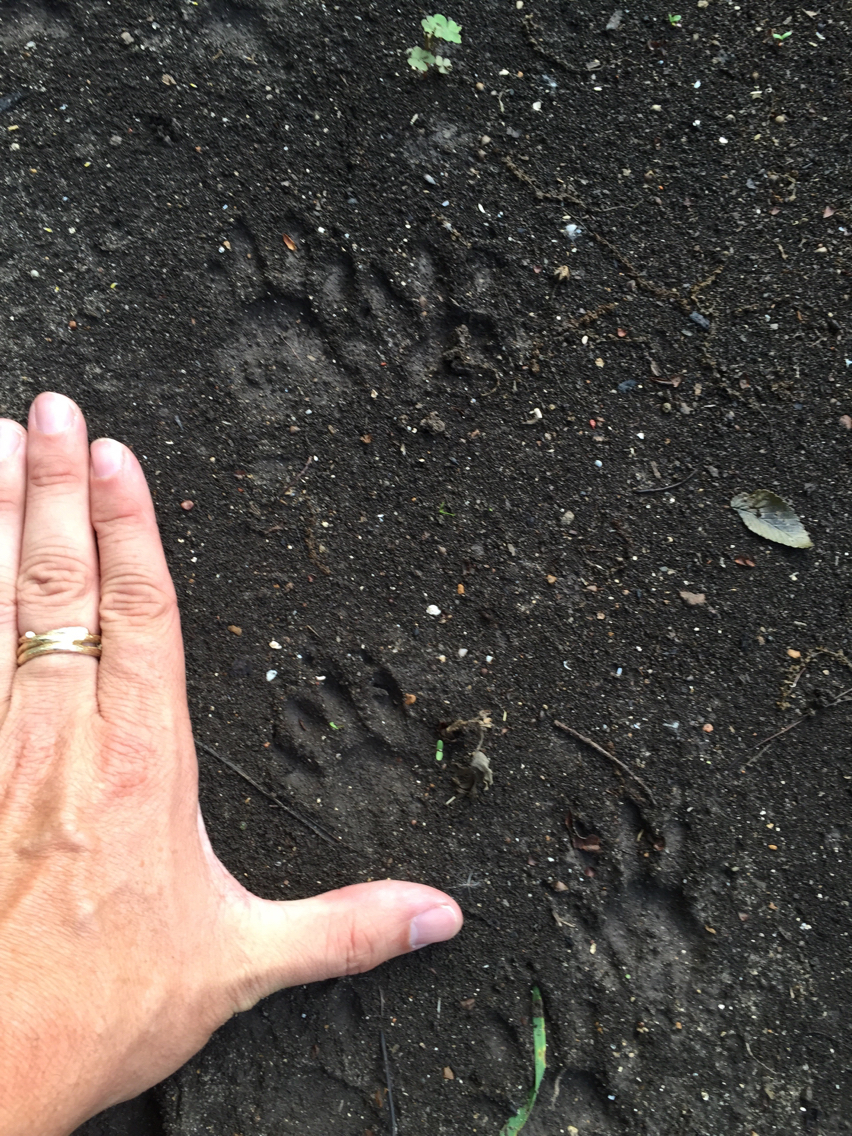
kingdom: Animalia
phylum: Chordata
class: Mammalia
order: Carnivora
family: Procyonidae
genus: Procyon
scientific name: Procyon lotor
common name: Raccoon
